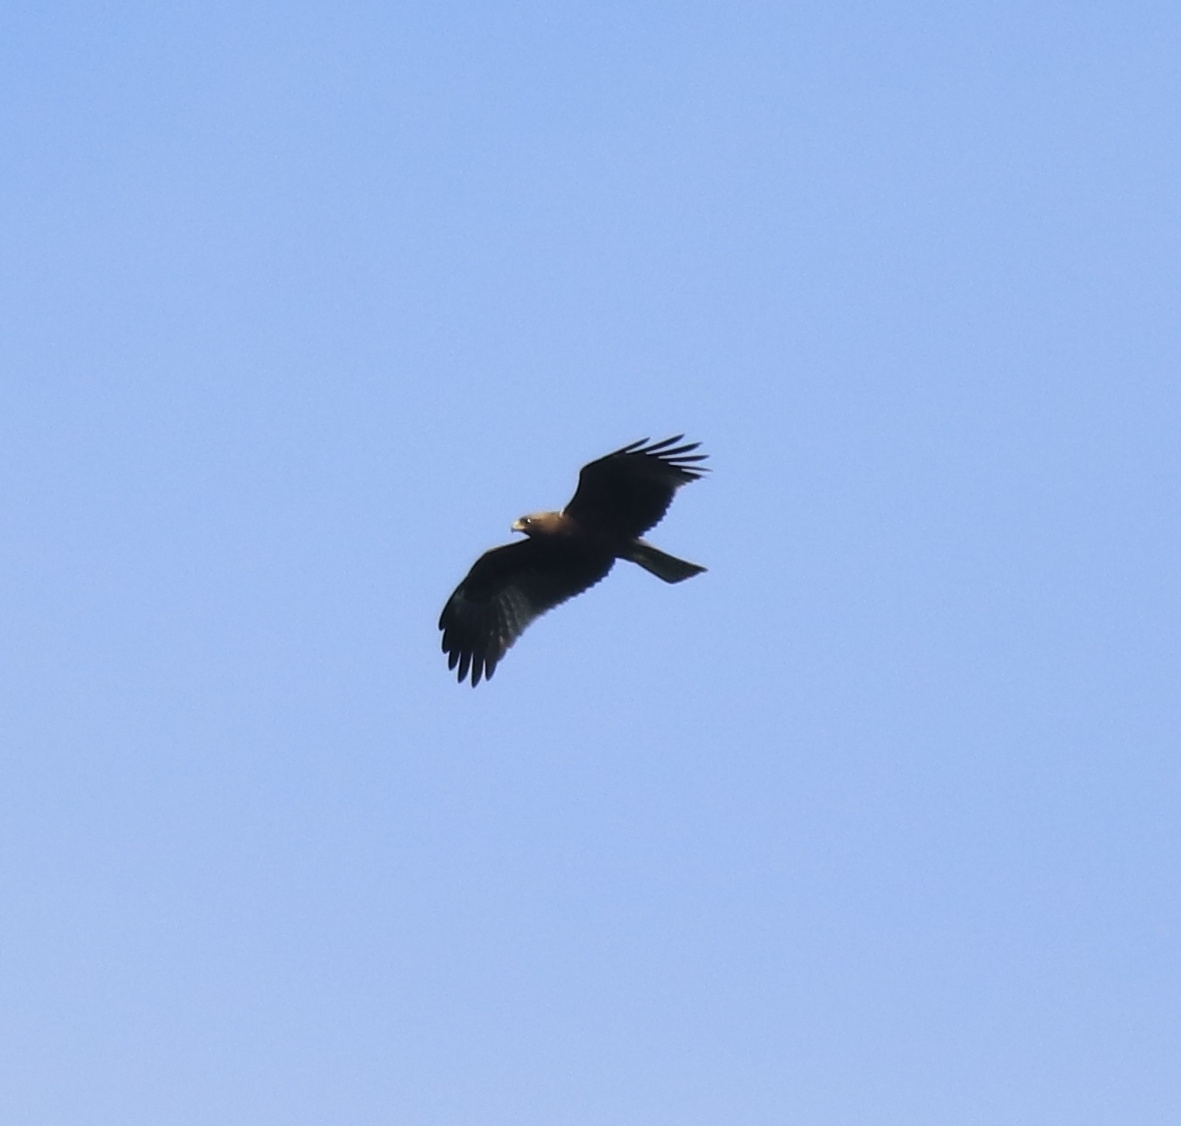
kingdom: Animalia
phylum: Chordata
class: Aves
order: Accipitriformes
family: Accipitridae
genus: Hieraaetus
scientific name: Hieraaetus pennatus
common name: Booted eagle
